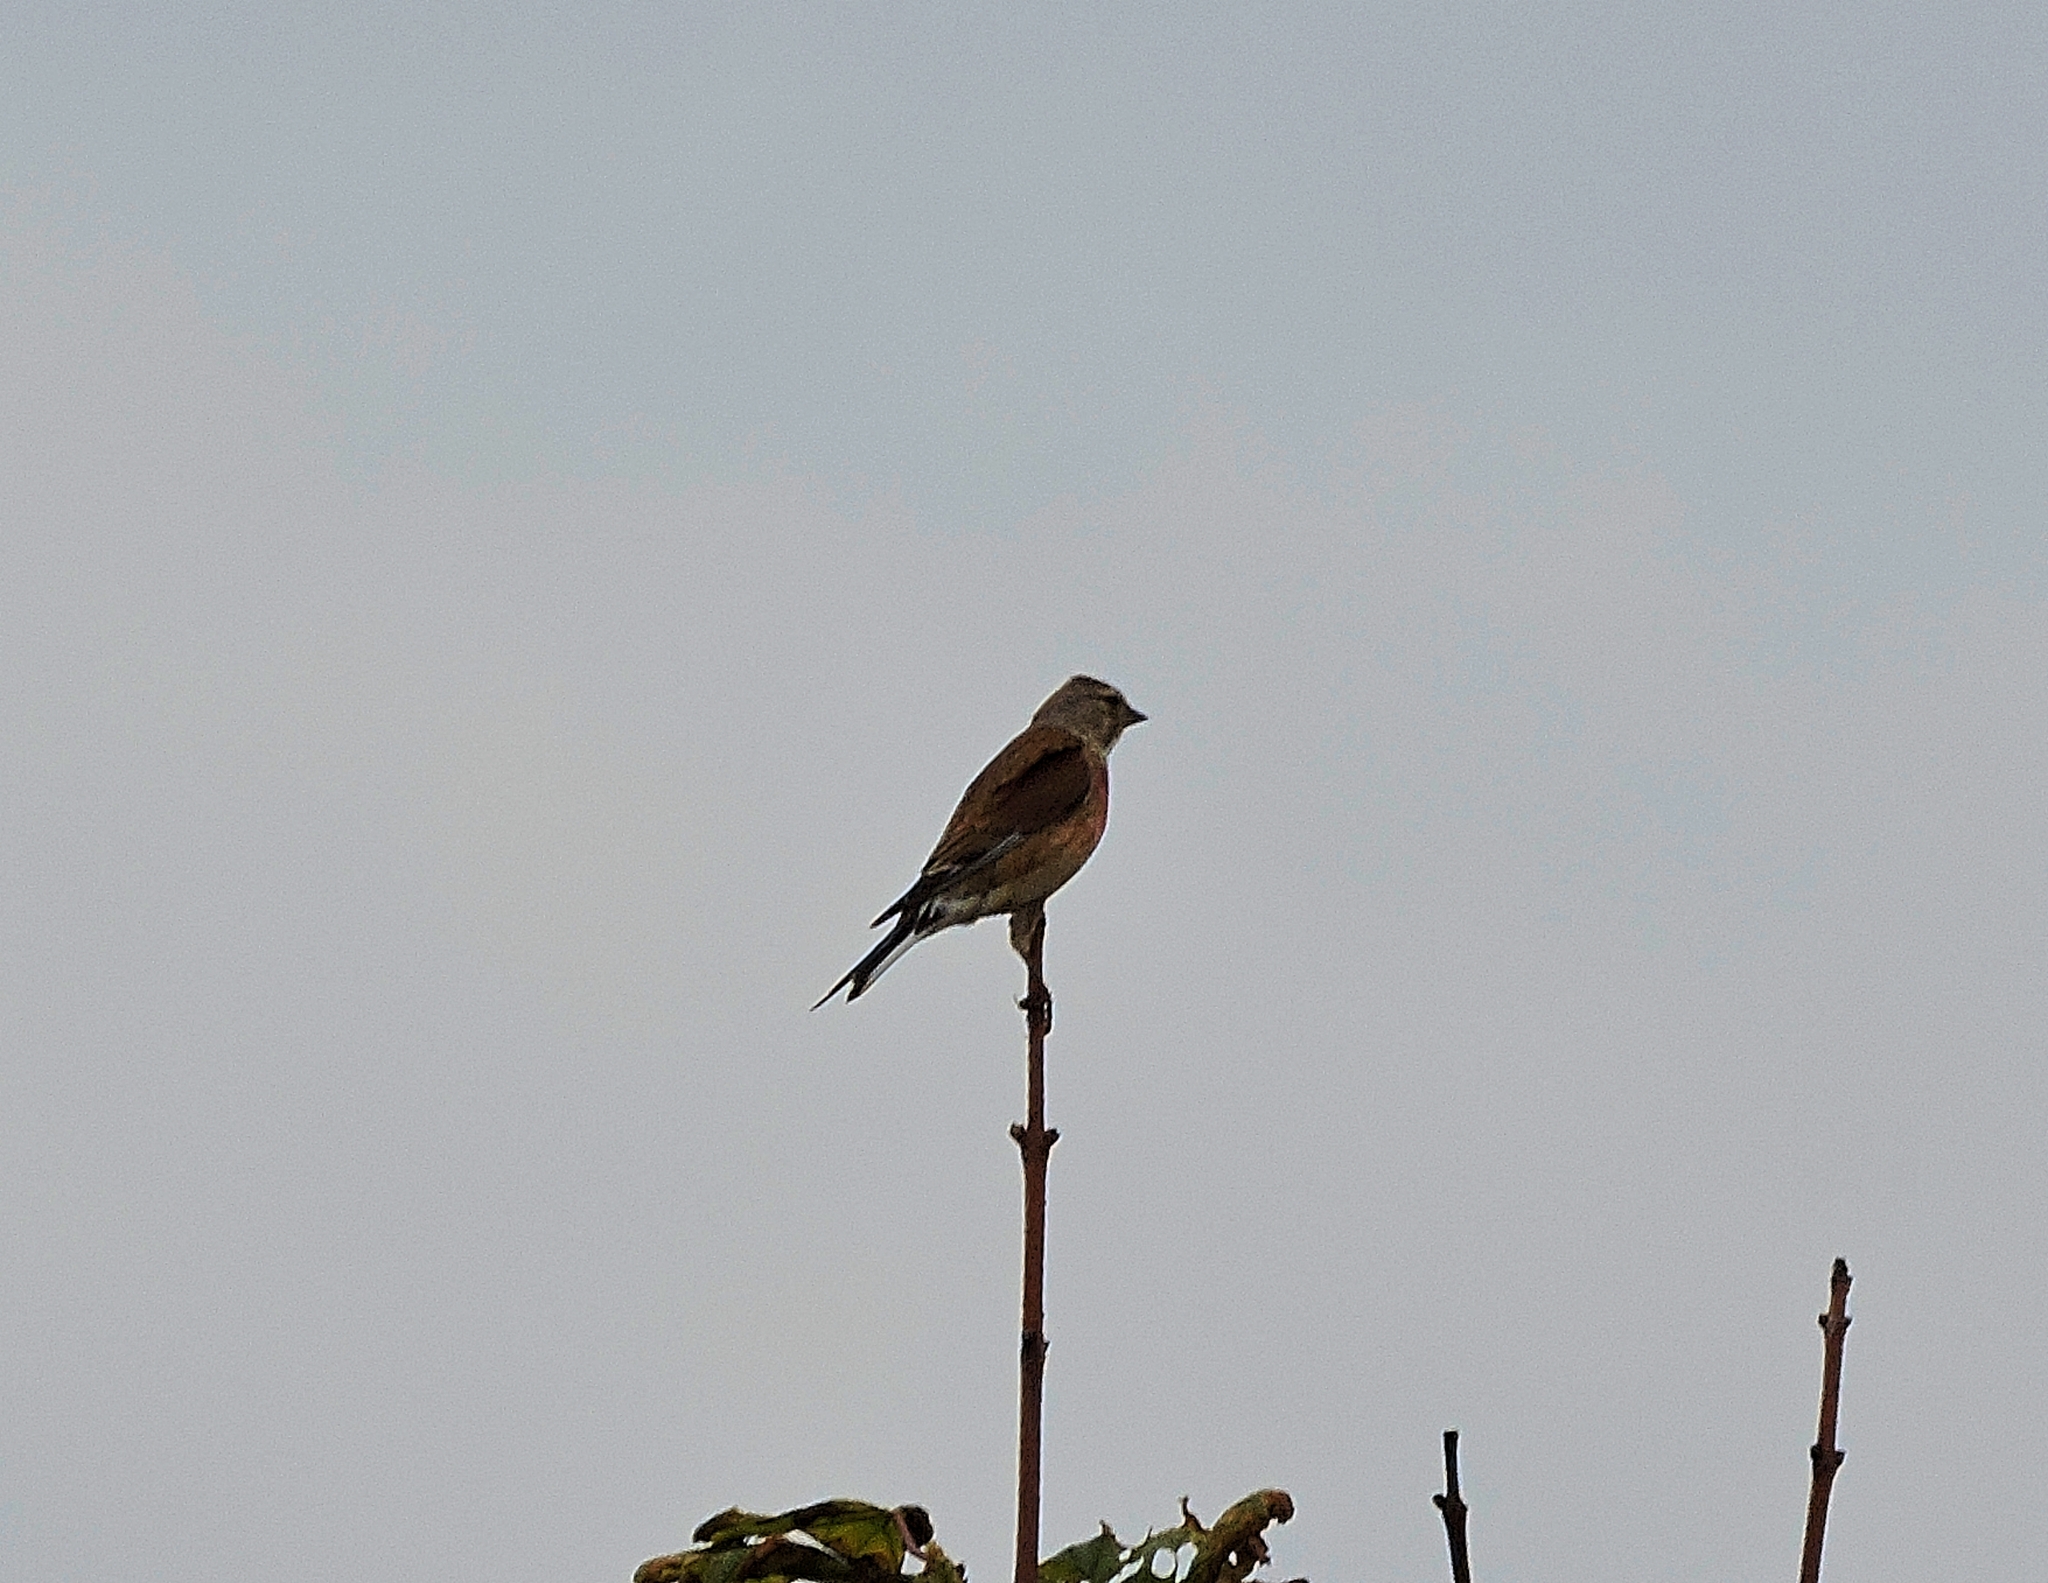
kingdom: Animalia
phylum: Chordata
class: Aves
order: Passeriformes
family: Fringillidae
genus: Linaria
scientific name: Linaria cannabina
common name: Common linnet
